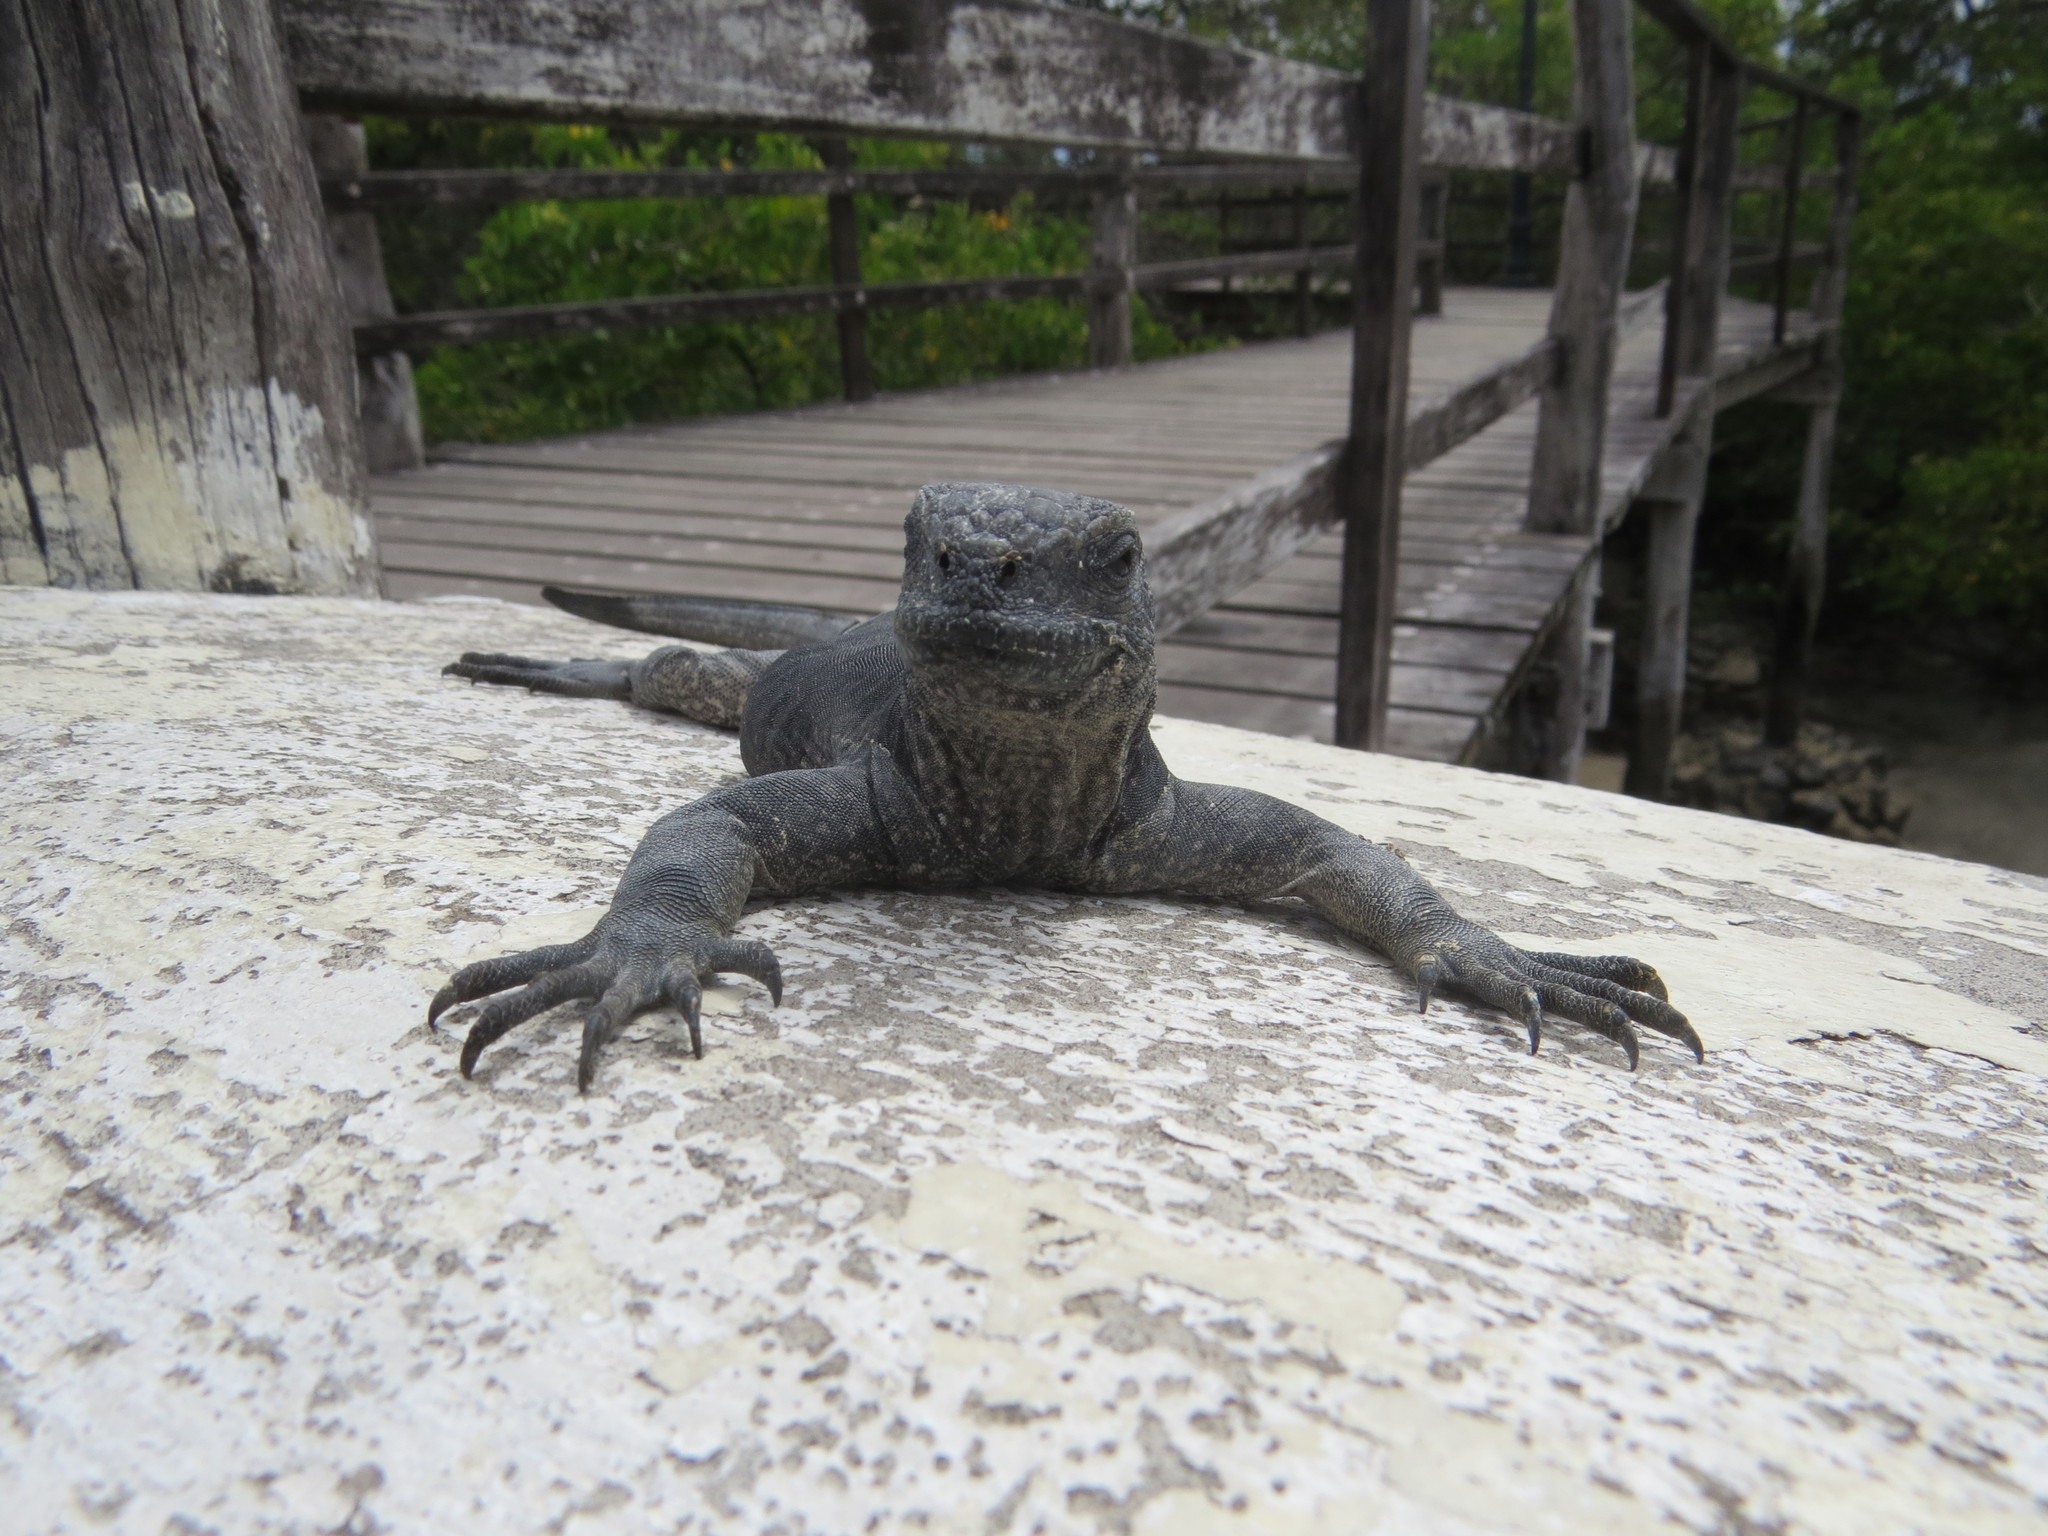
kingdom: Animalia
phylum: Chordata
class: Squamata
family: Iguanidae
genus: Amblyrhynchus
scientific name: Amblyrhynchus cristatus
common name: Marine iguana
